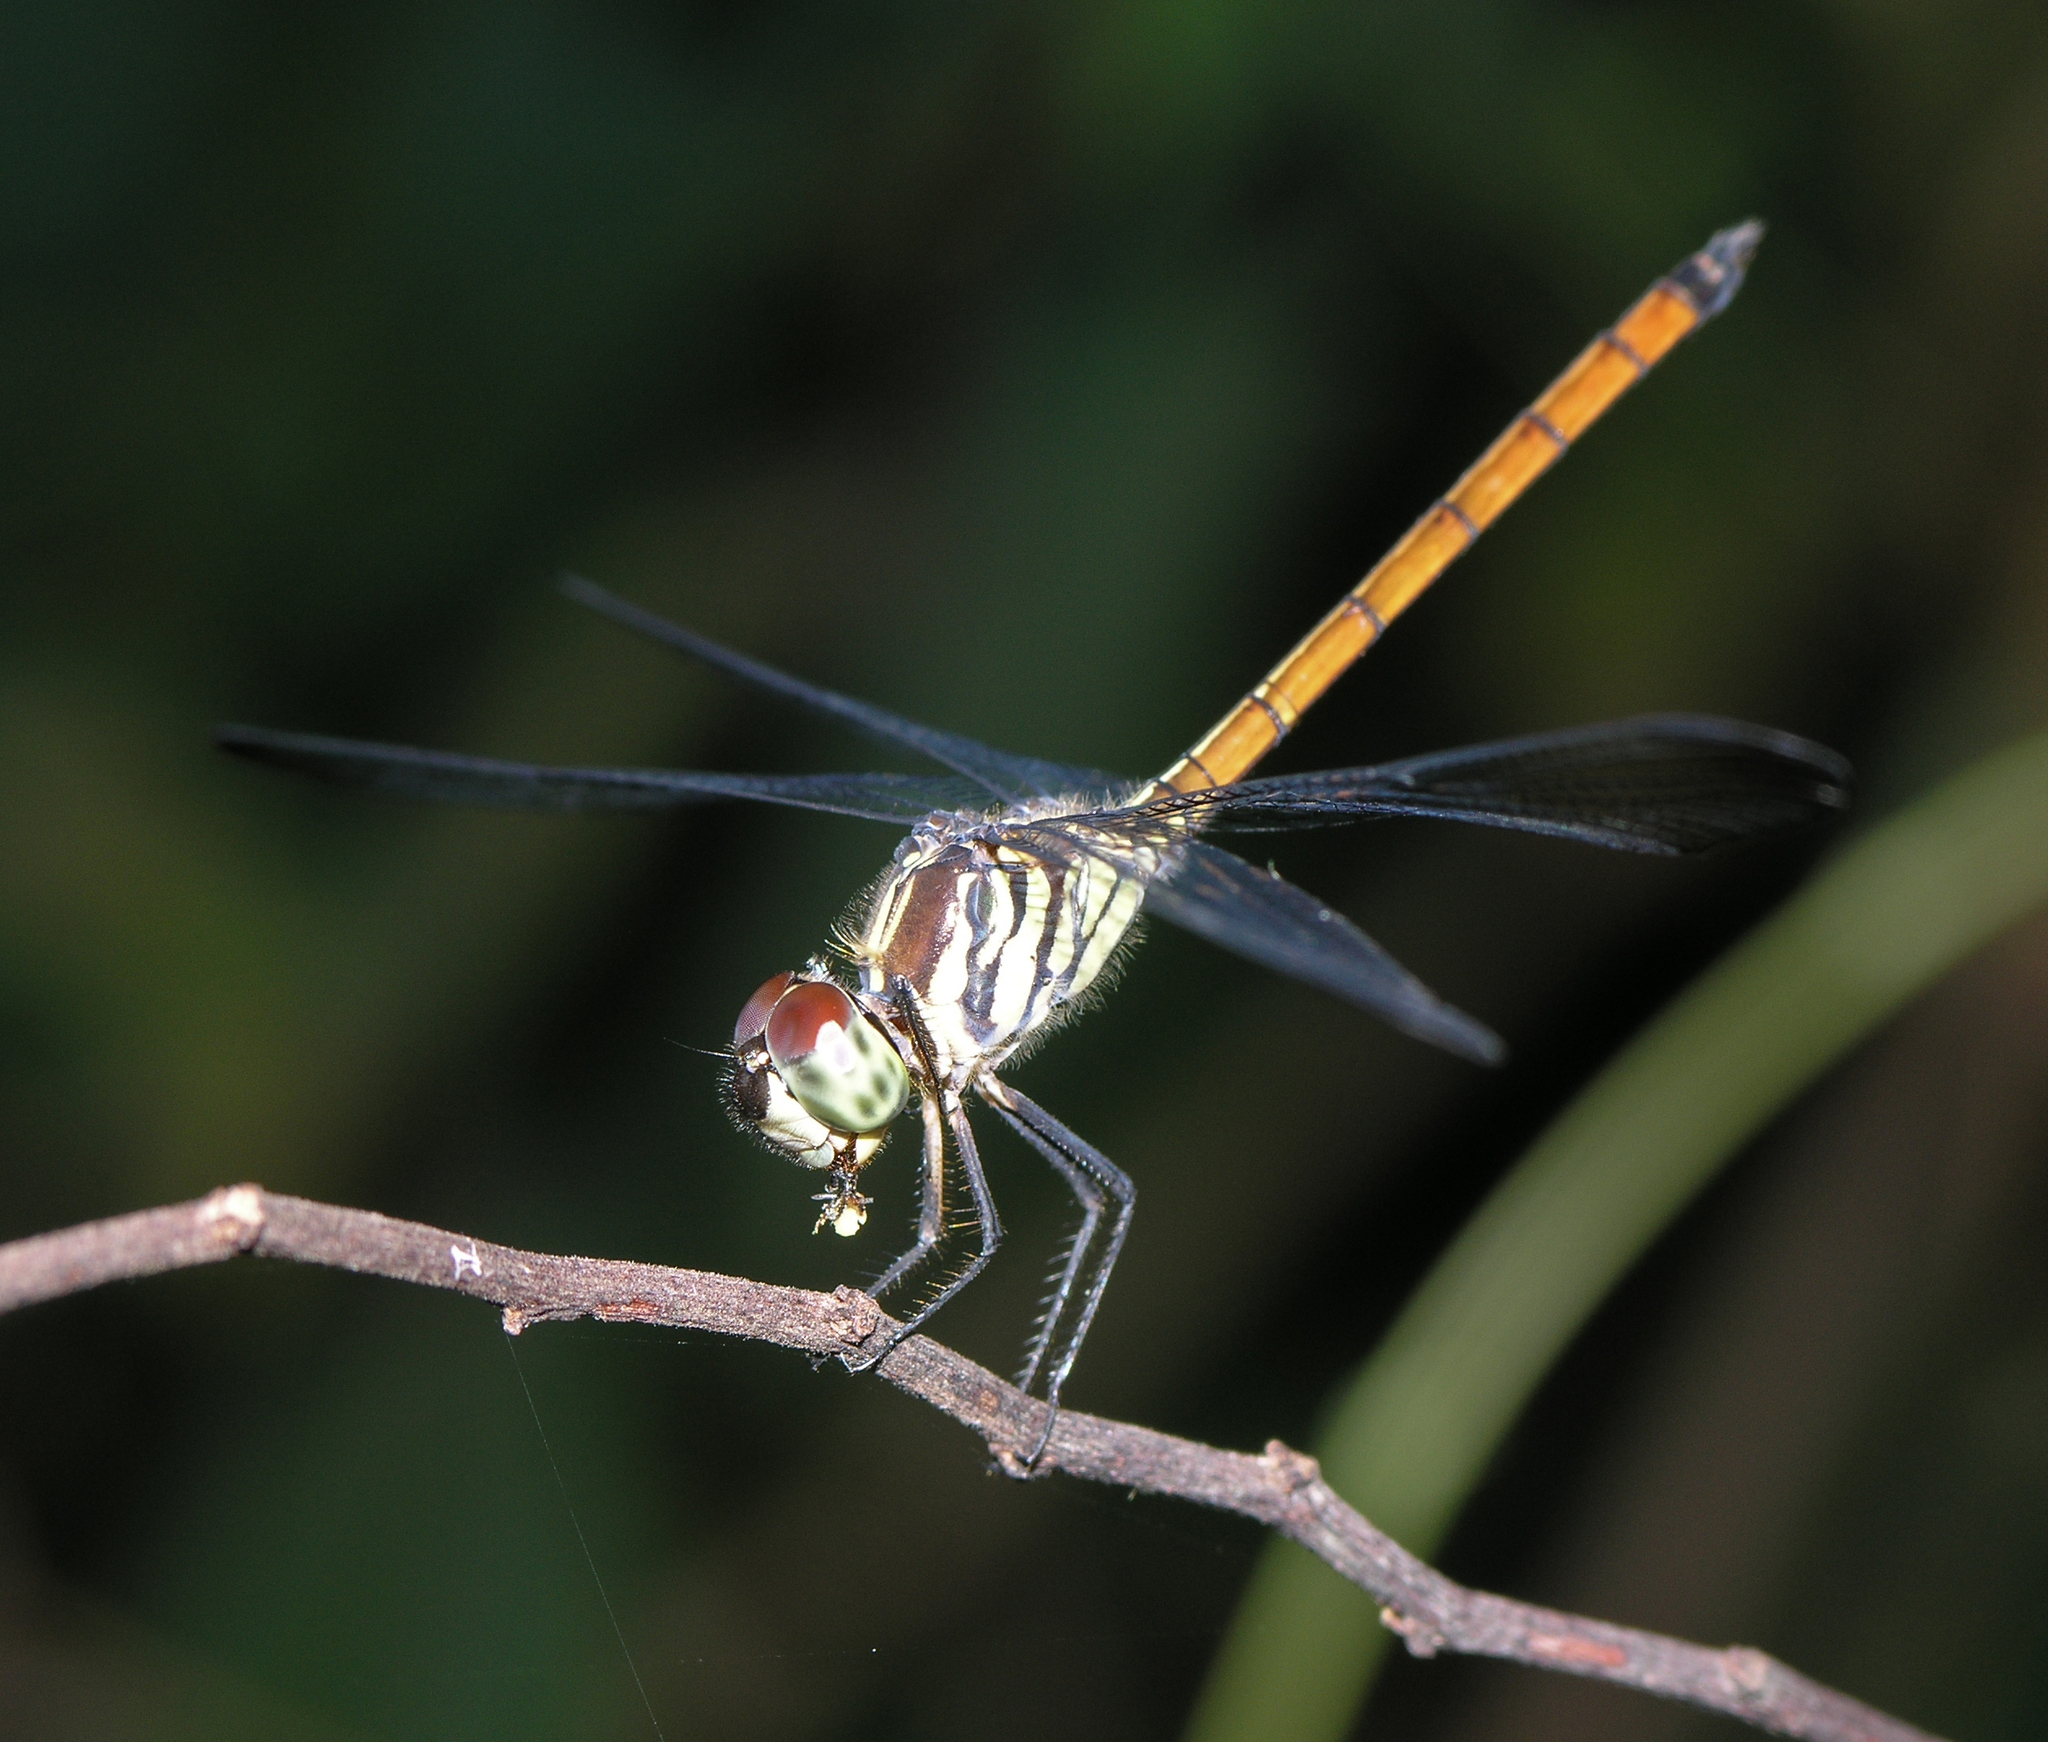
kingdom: Animalia
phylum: Arthropoda
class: Insecta
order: Odonata
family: Libellulidae
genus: Lathrecista
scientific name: Lathrecista asiatica
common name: Scarlet grenadier
